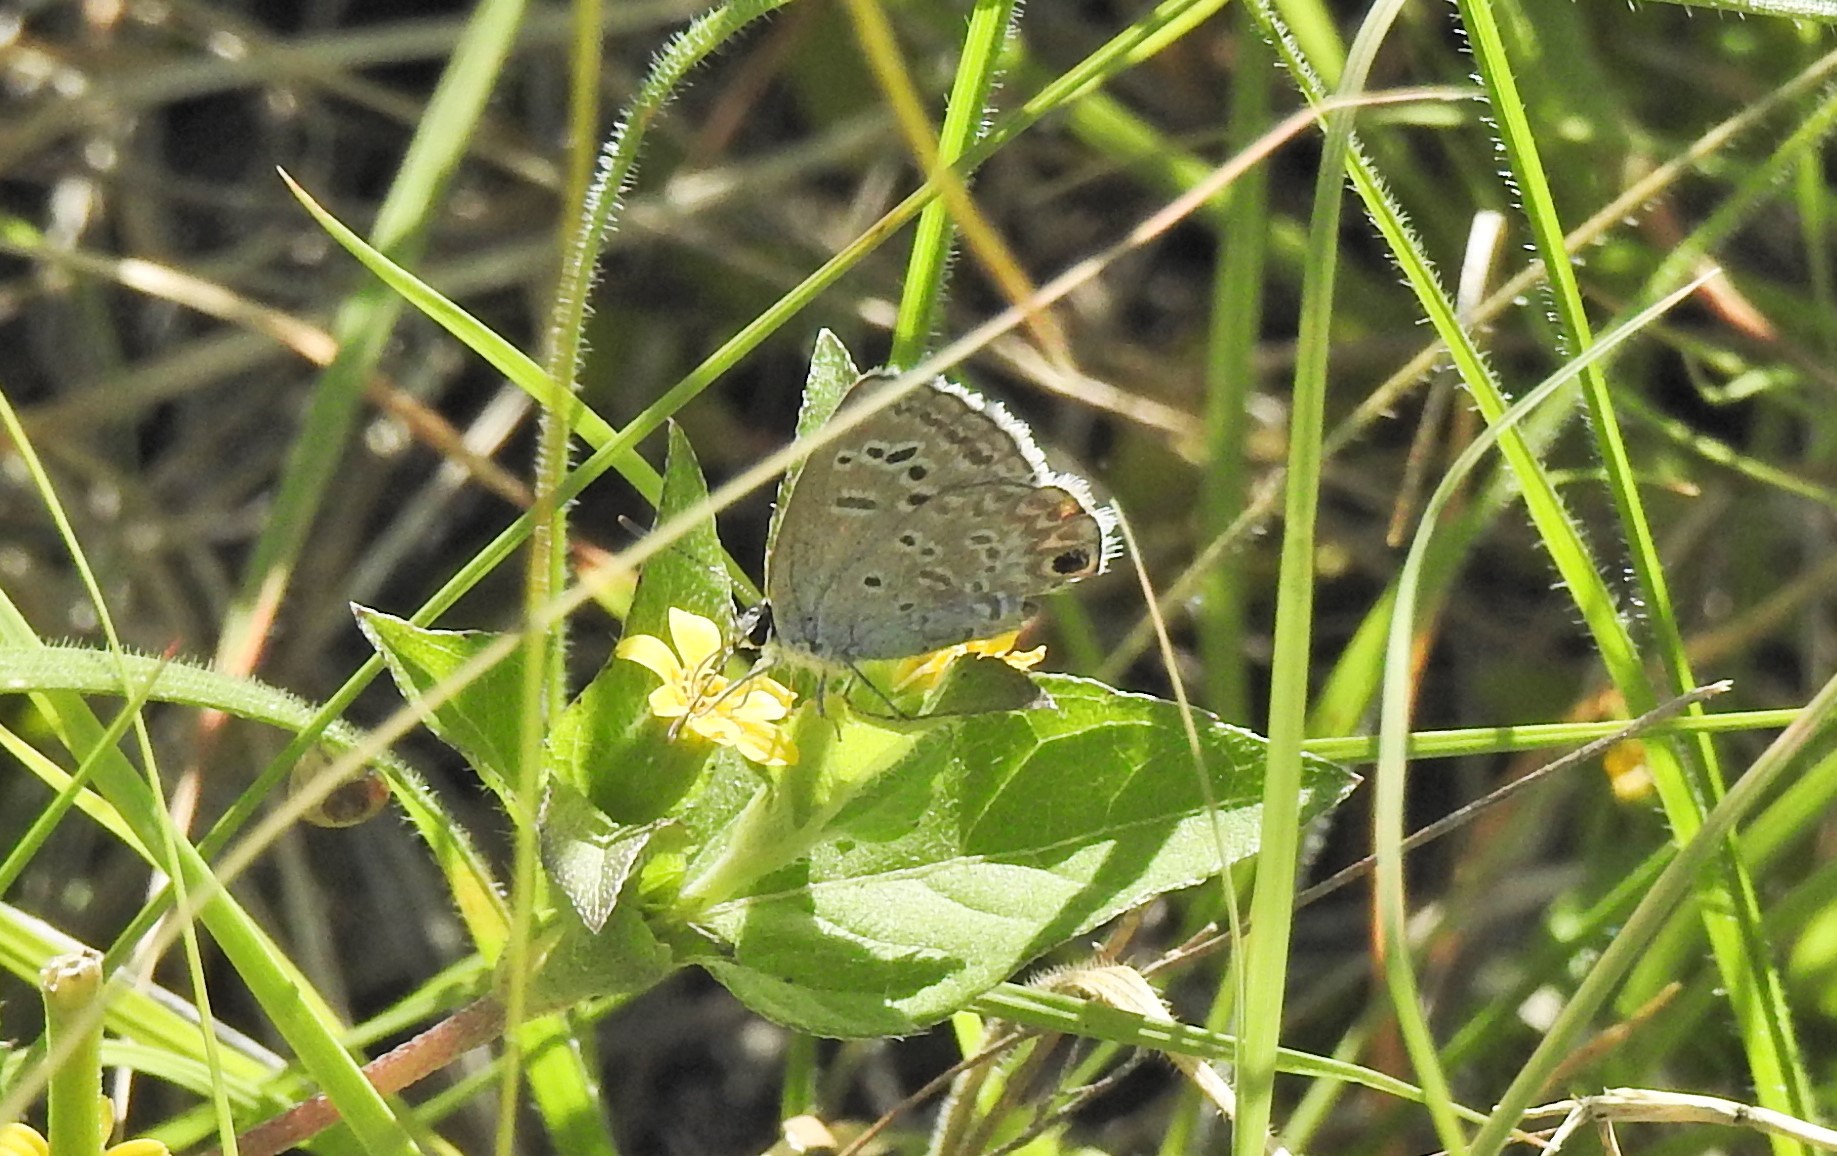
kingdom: Animalia
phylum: Arthropoda
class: Insecta
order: Lepidoptera
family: Lycaenidae
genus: Echinargus
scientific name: Echinargus isola
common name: Reakirt's blue
